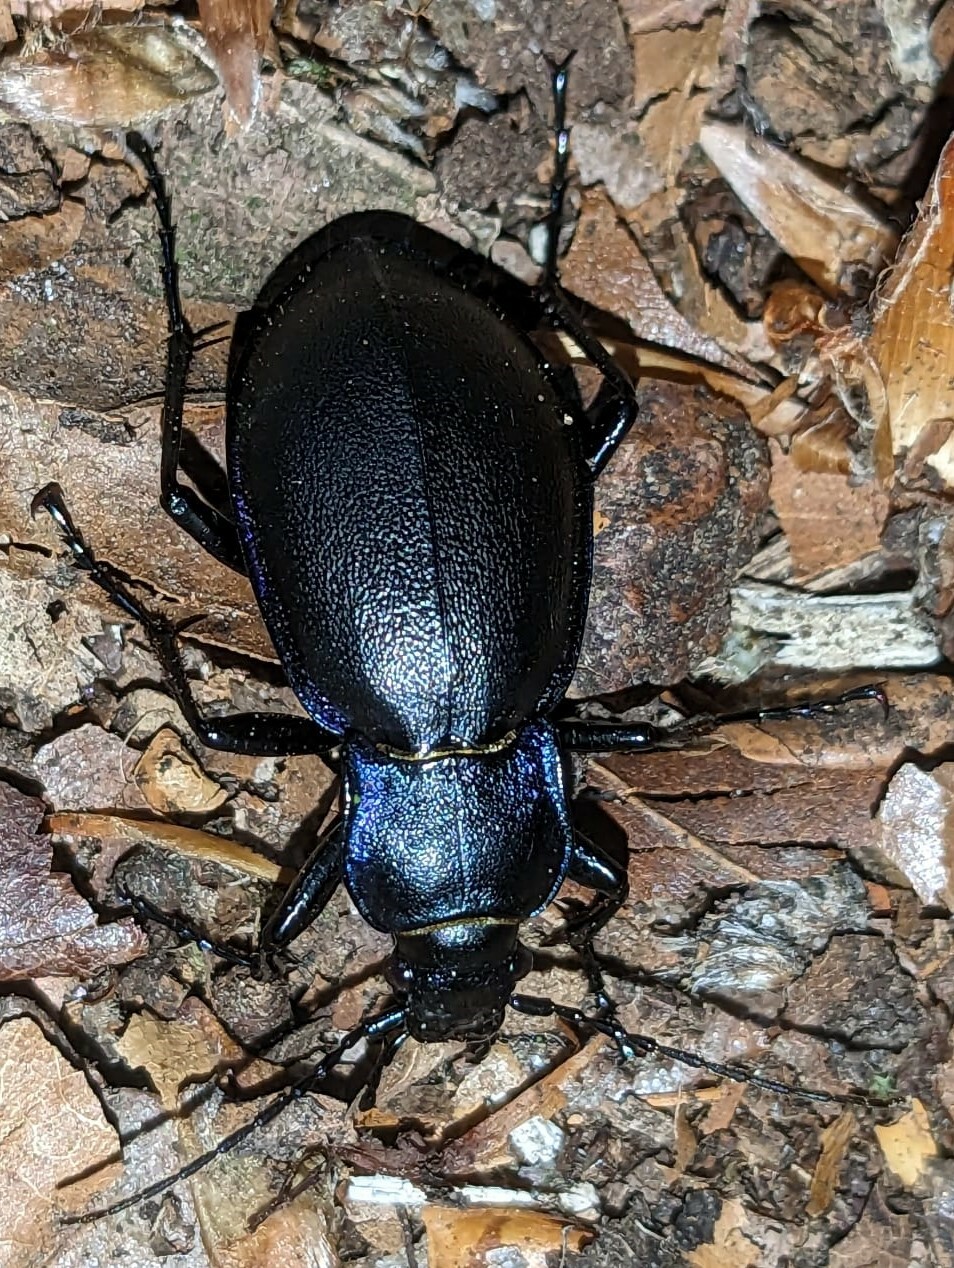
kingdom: Animalia
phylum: Arthropoda
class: Insecta
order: Coleoptera
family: Carabidae
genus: Carabus
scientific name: Carabus violaceus
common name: Violet ground beetle
